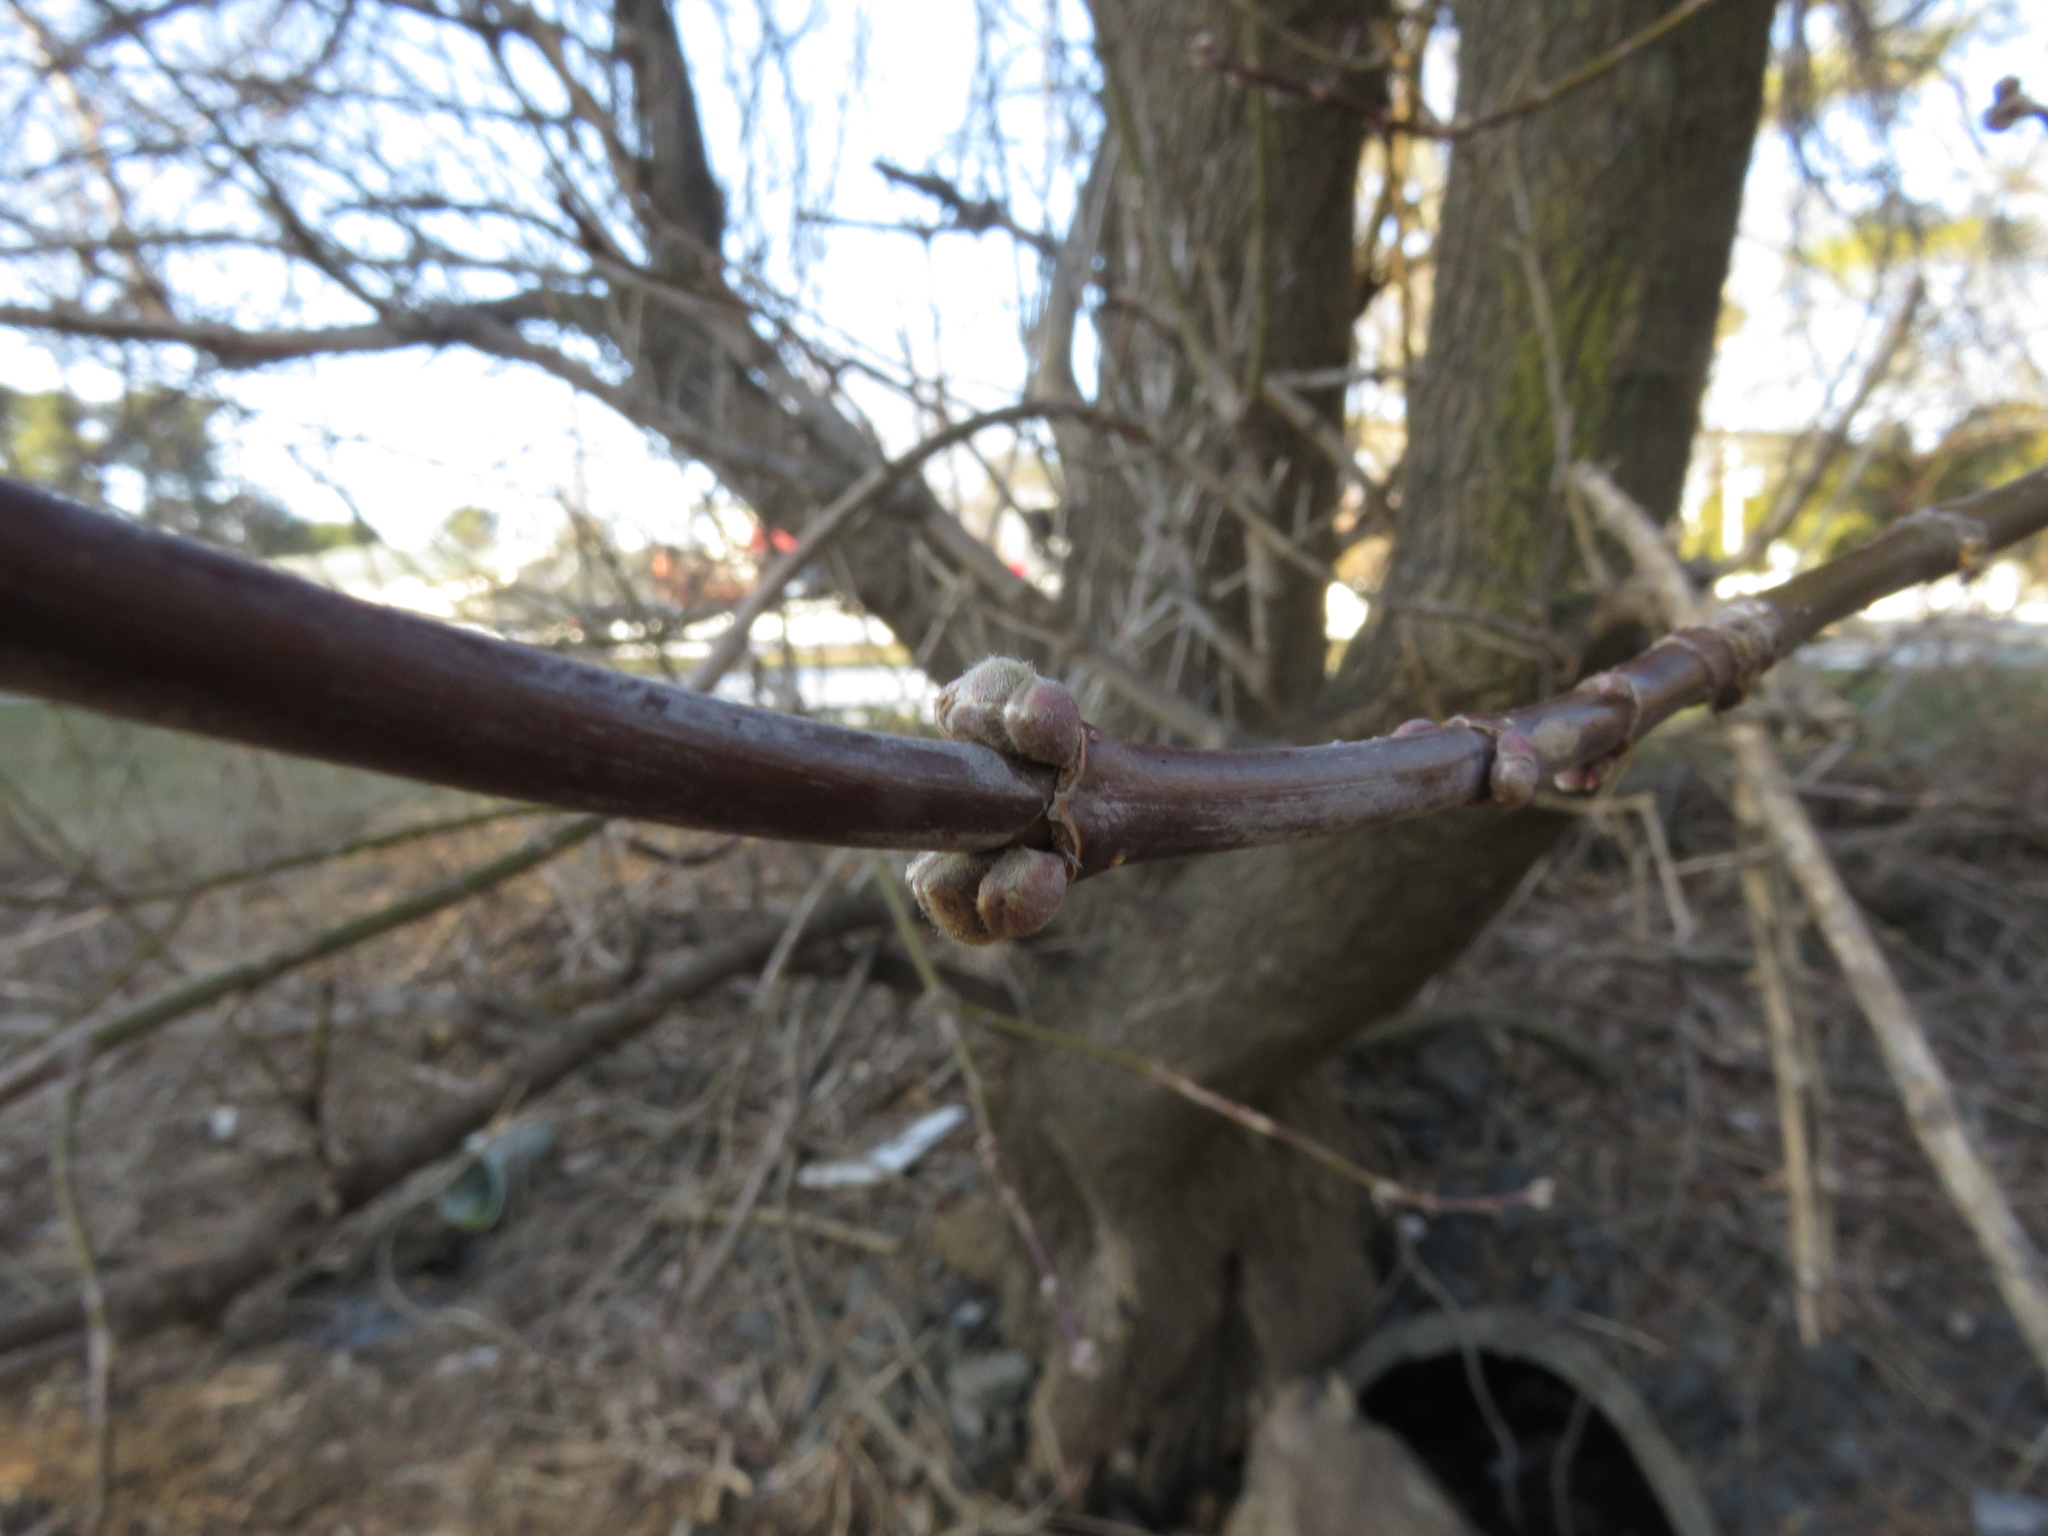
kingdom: Plantae
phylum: Tracheophyta
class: Magnoliopsida
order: Sapindales
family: Sapindaceae
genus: Acer
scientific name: Acer negundo
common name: Ashleaf maple
